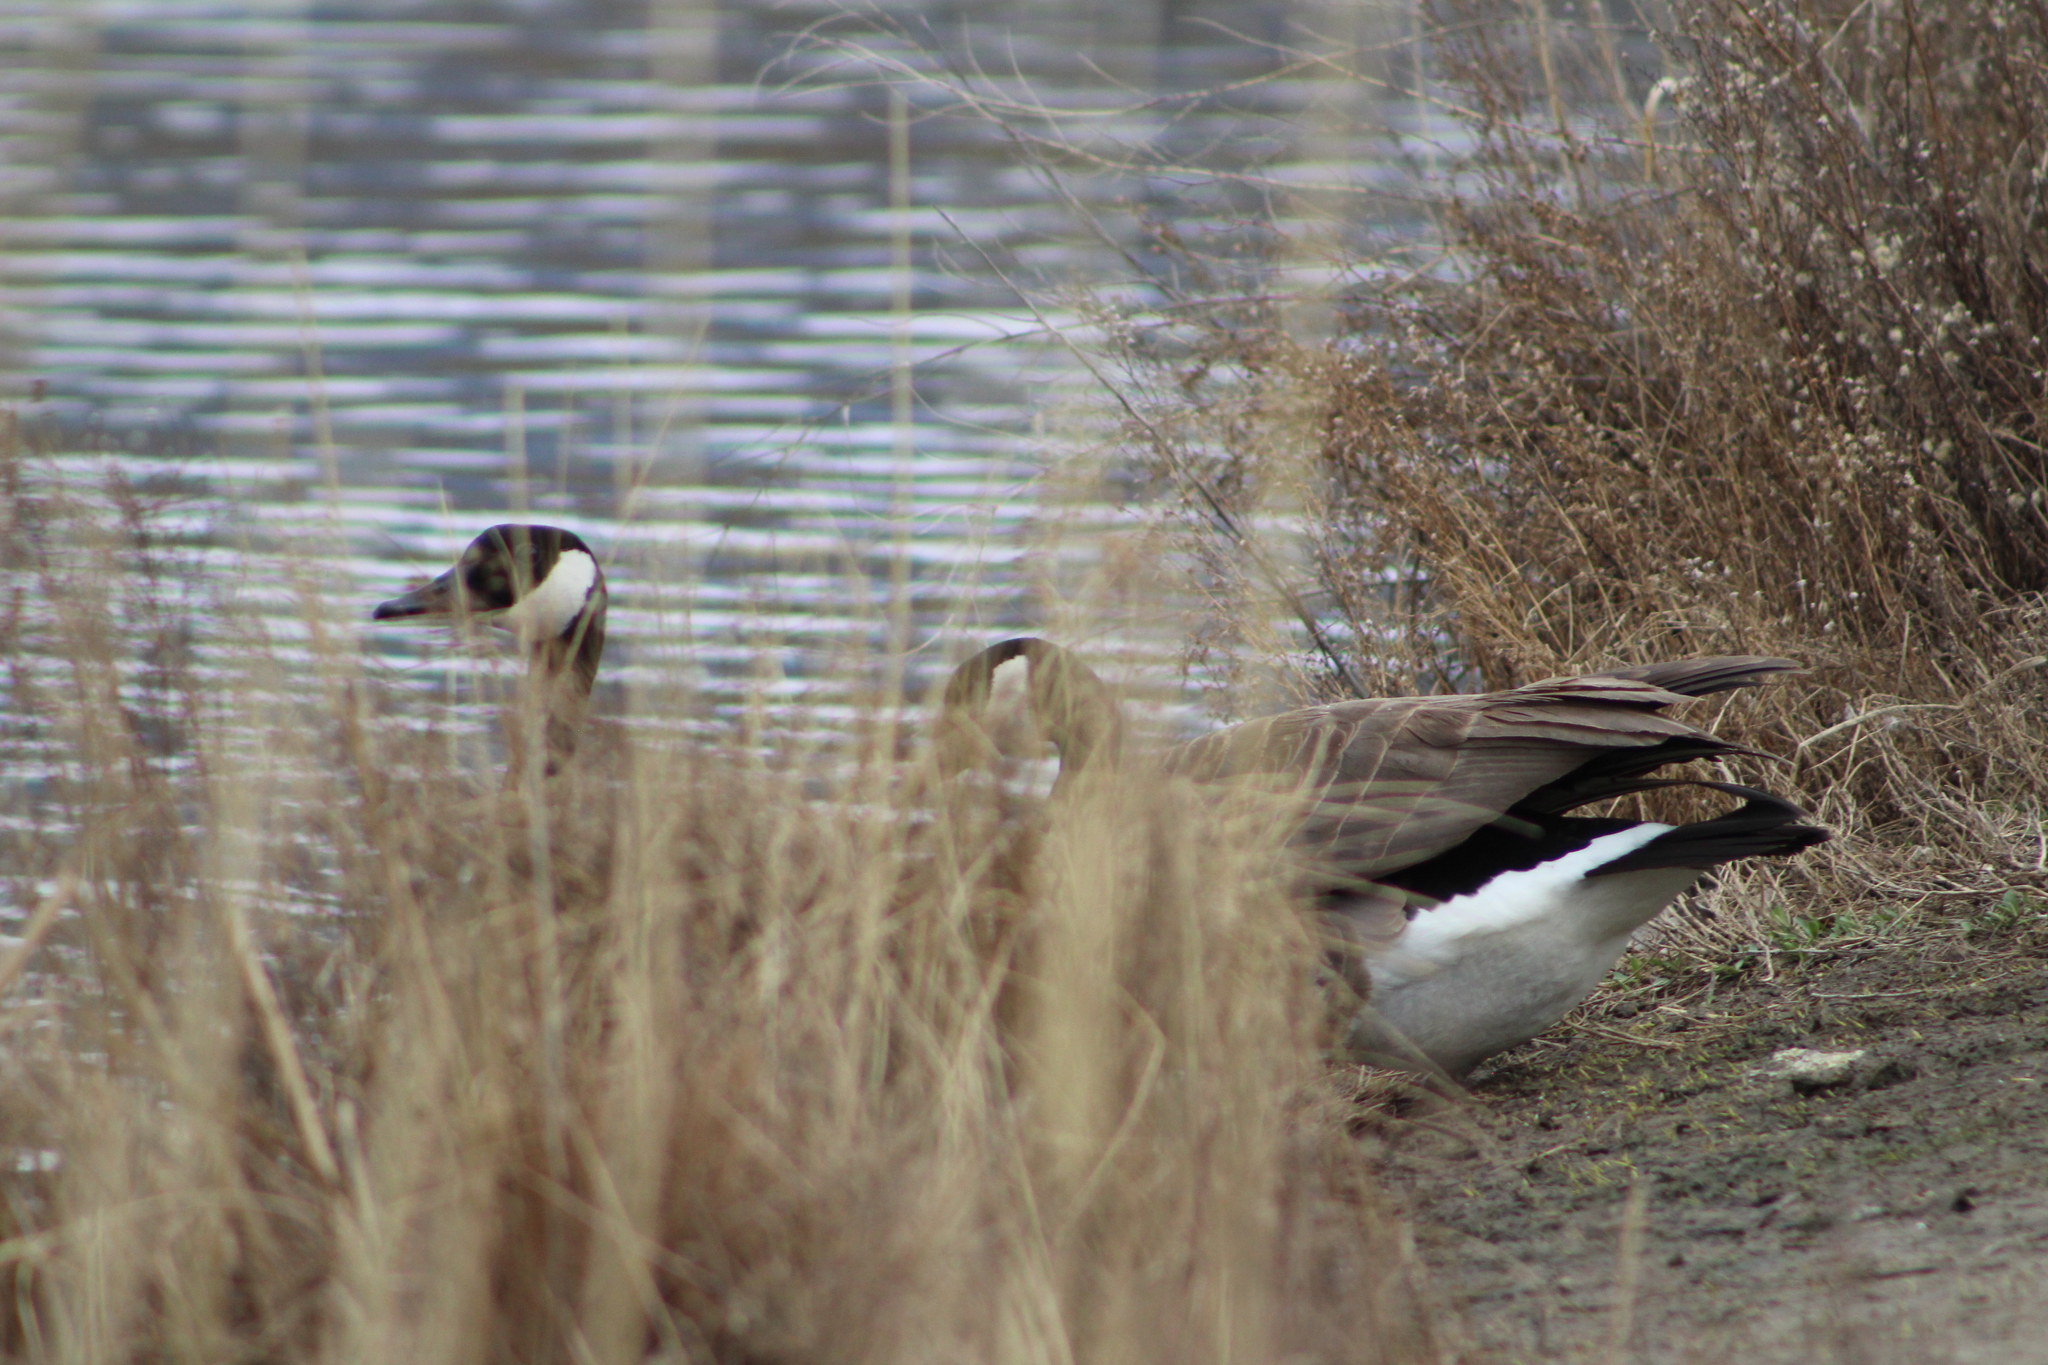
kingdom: Animalia
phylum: Chordata
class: Aves
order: Anseriformes
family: Anatidae
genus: Branta
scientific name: Branta canadensis
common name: Canada goose
